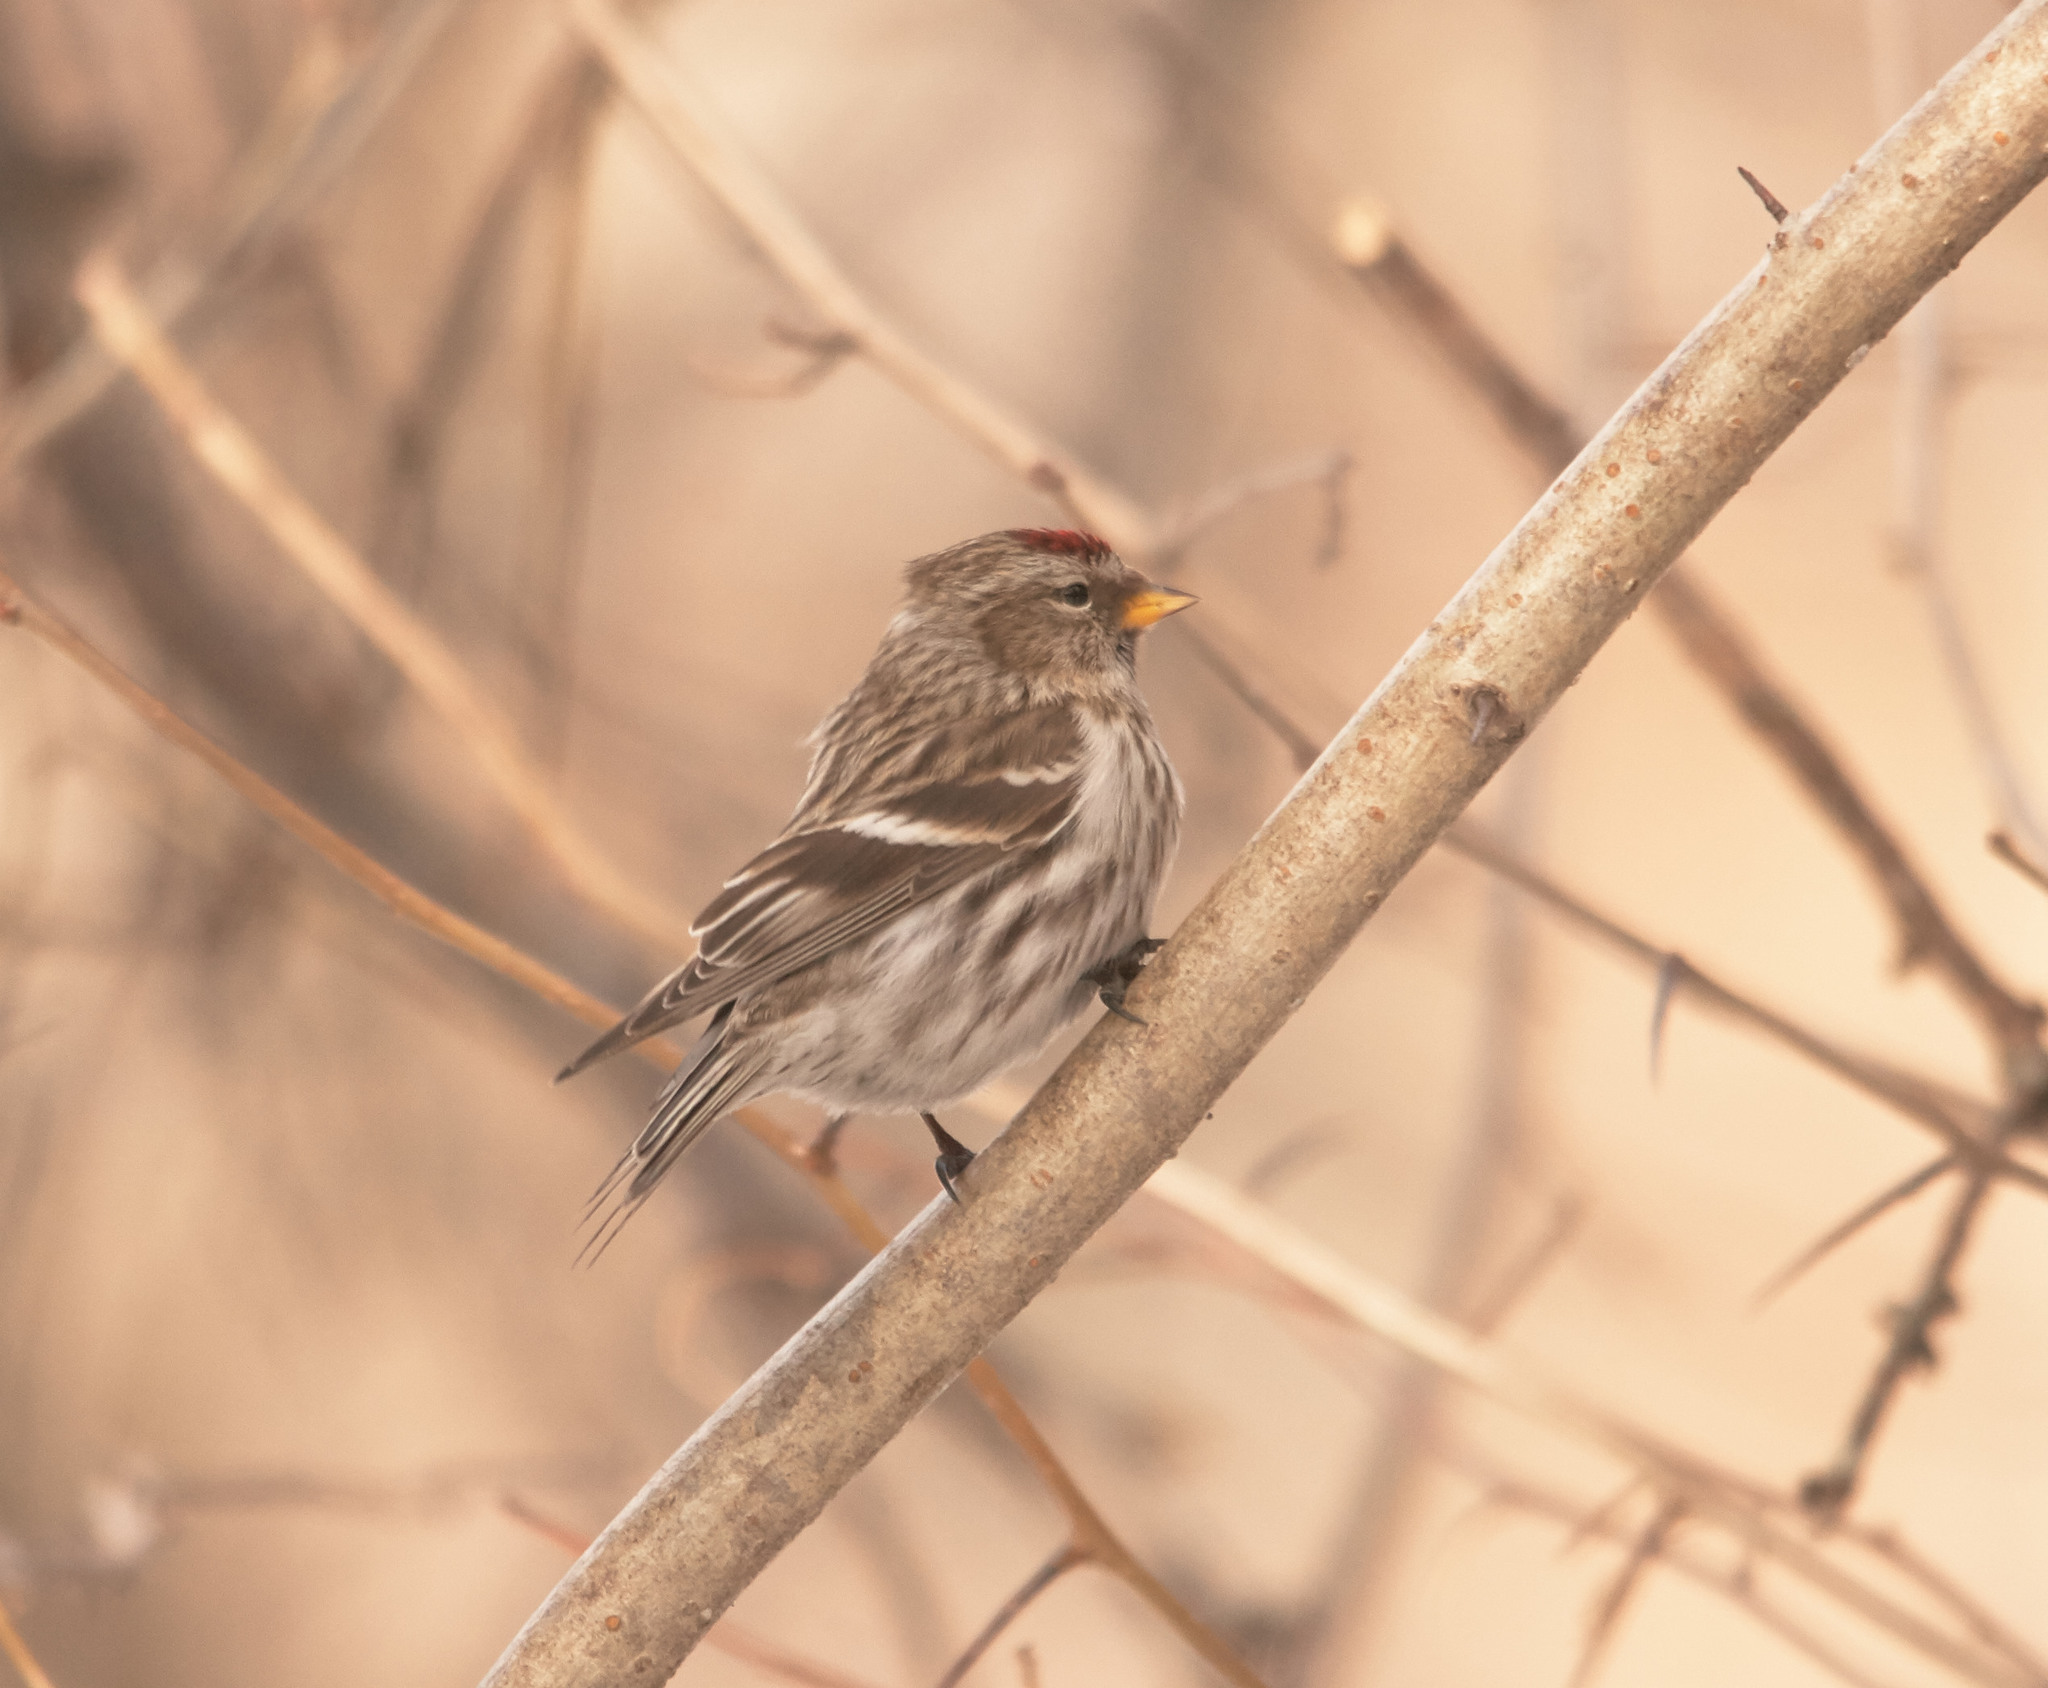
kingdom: Animalia
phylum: Chordata
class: Aves
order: Passeriformes
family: Fringillidae
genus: Acanthis
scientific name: Acanthis flammea
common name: Common redpoll
